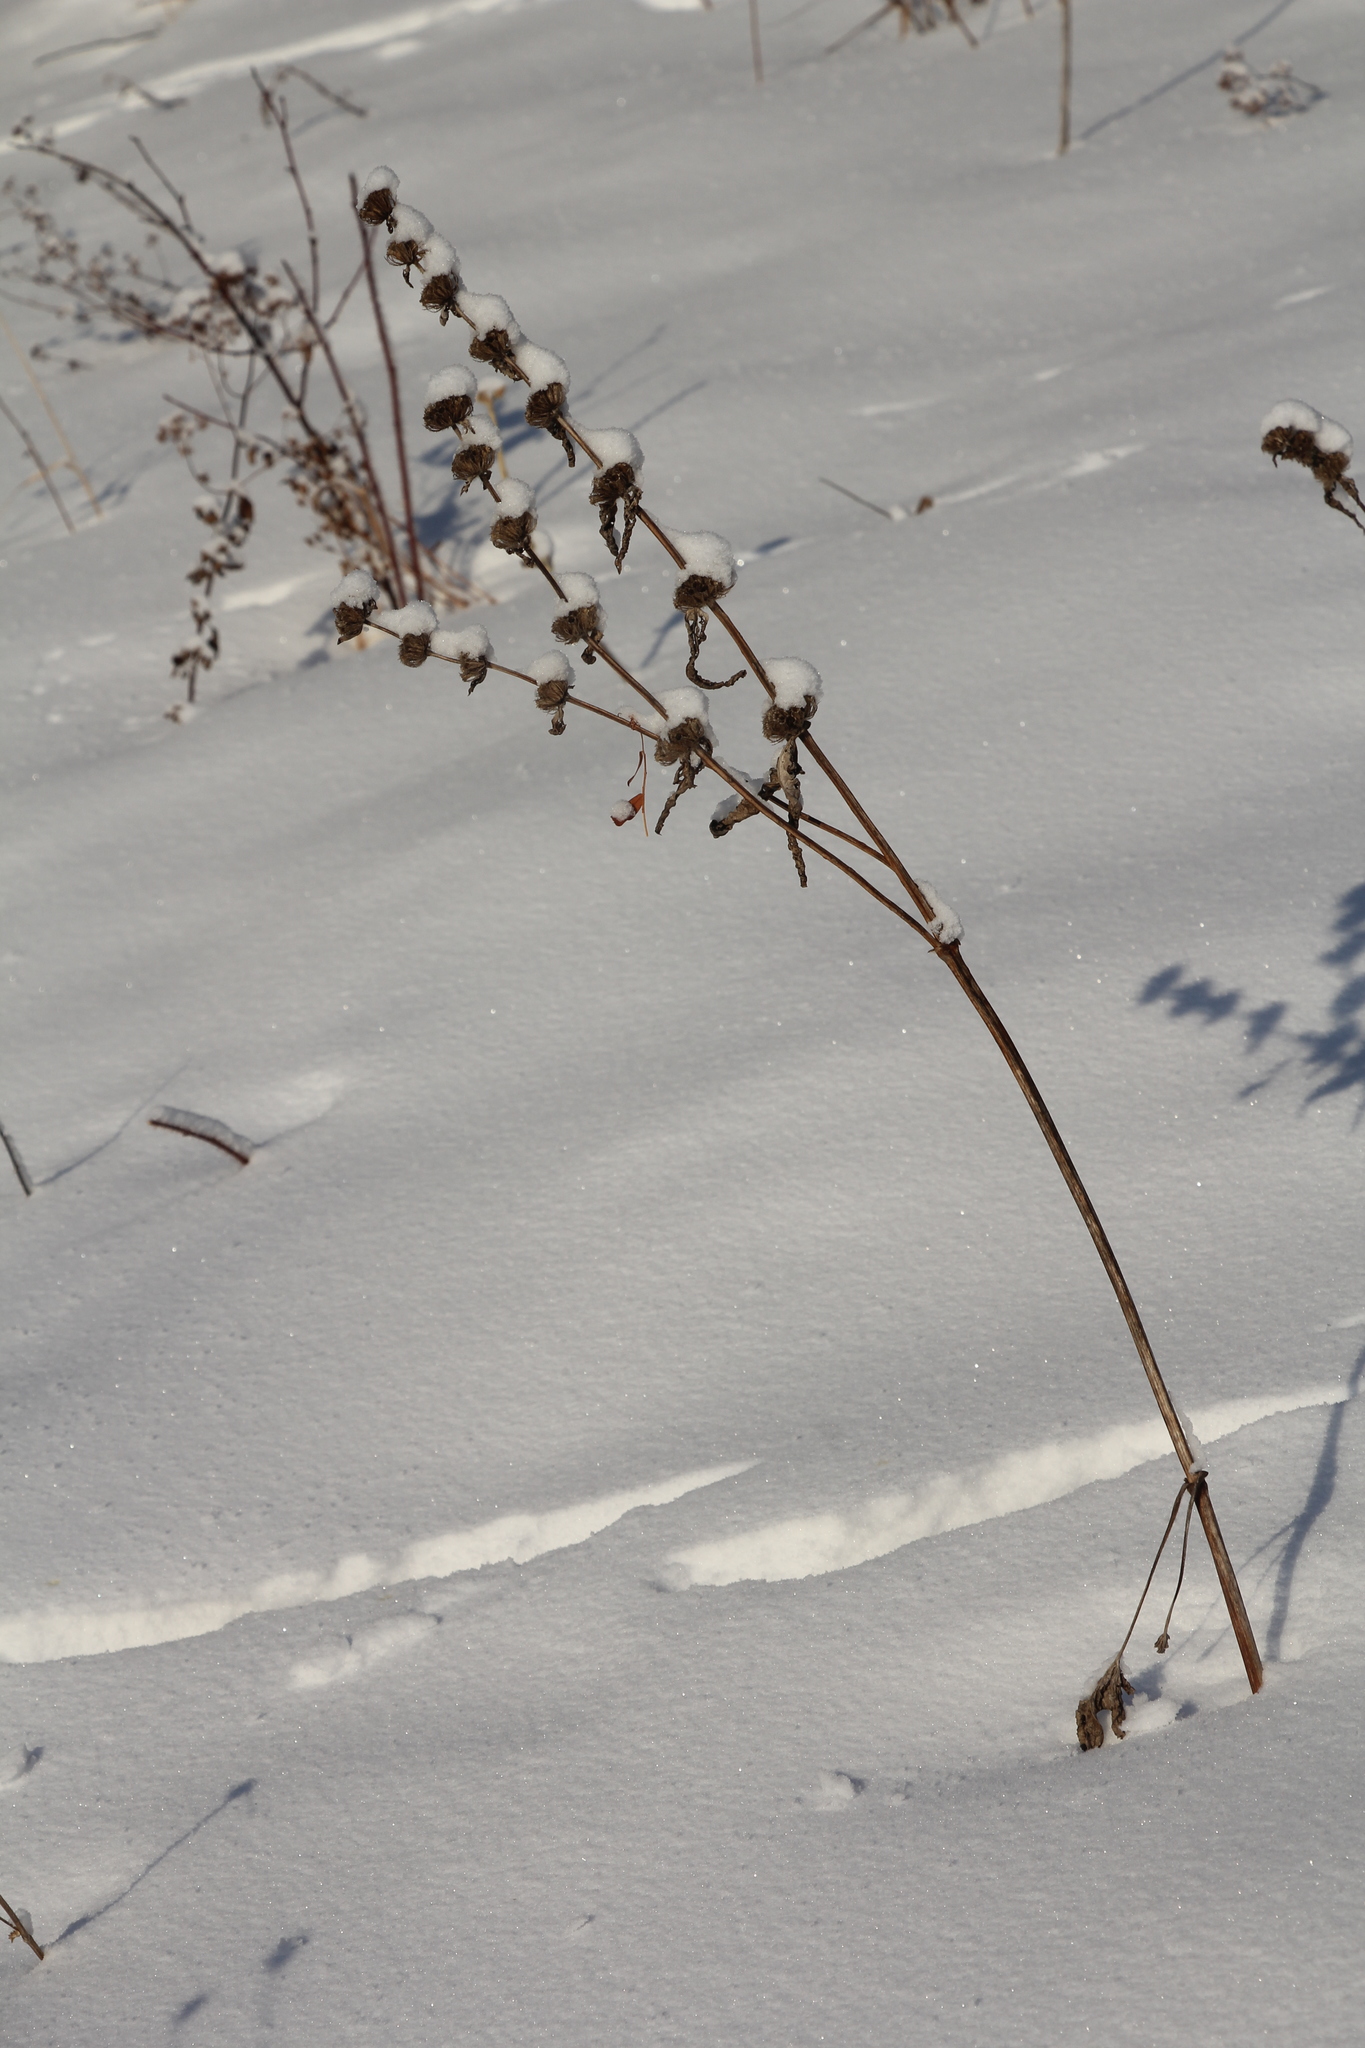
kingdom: Plantae
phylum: Tracheophyta
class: Magnoliopsida
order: Lamiales
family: Lamiaceae
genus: Phlomoides
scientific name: Phlomoides tuberosa
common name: Tuberous jerusalem sage
